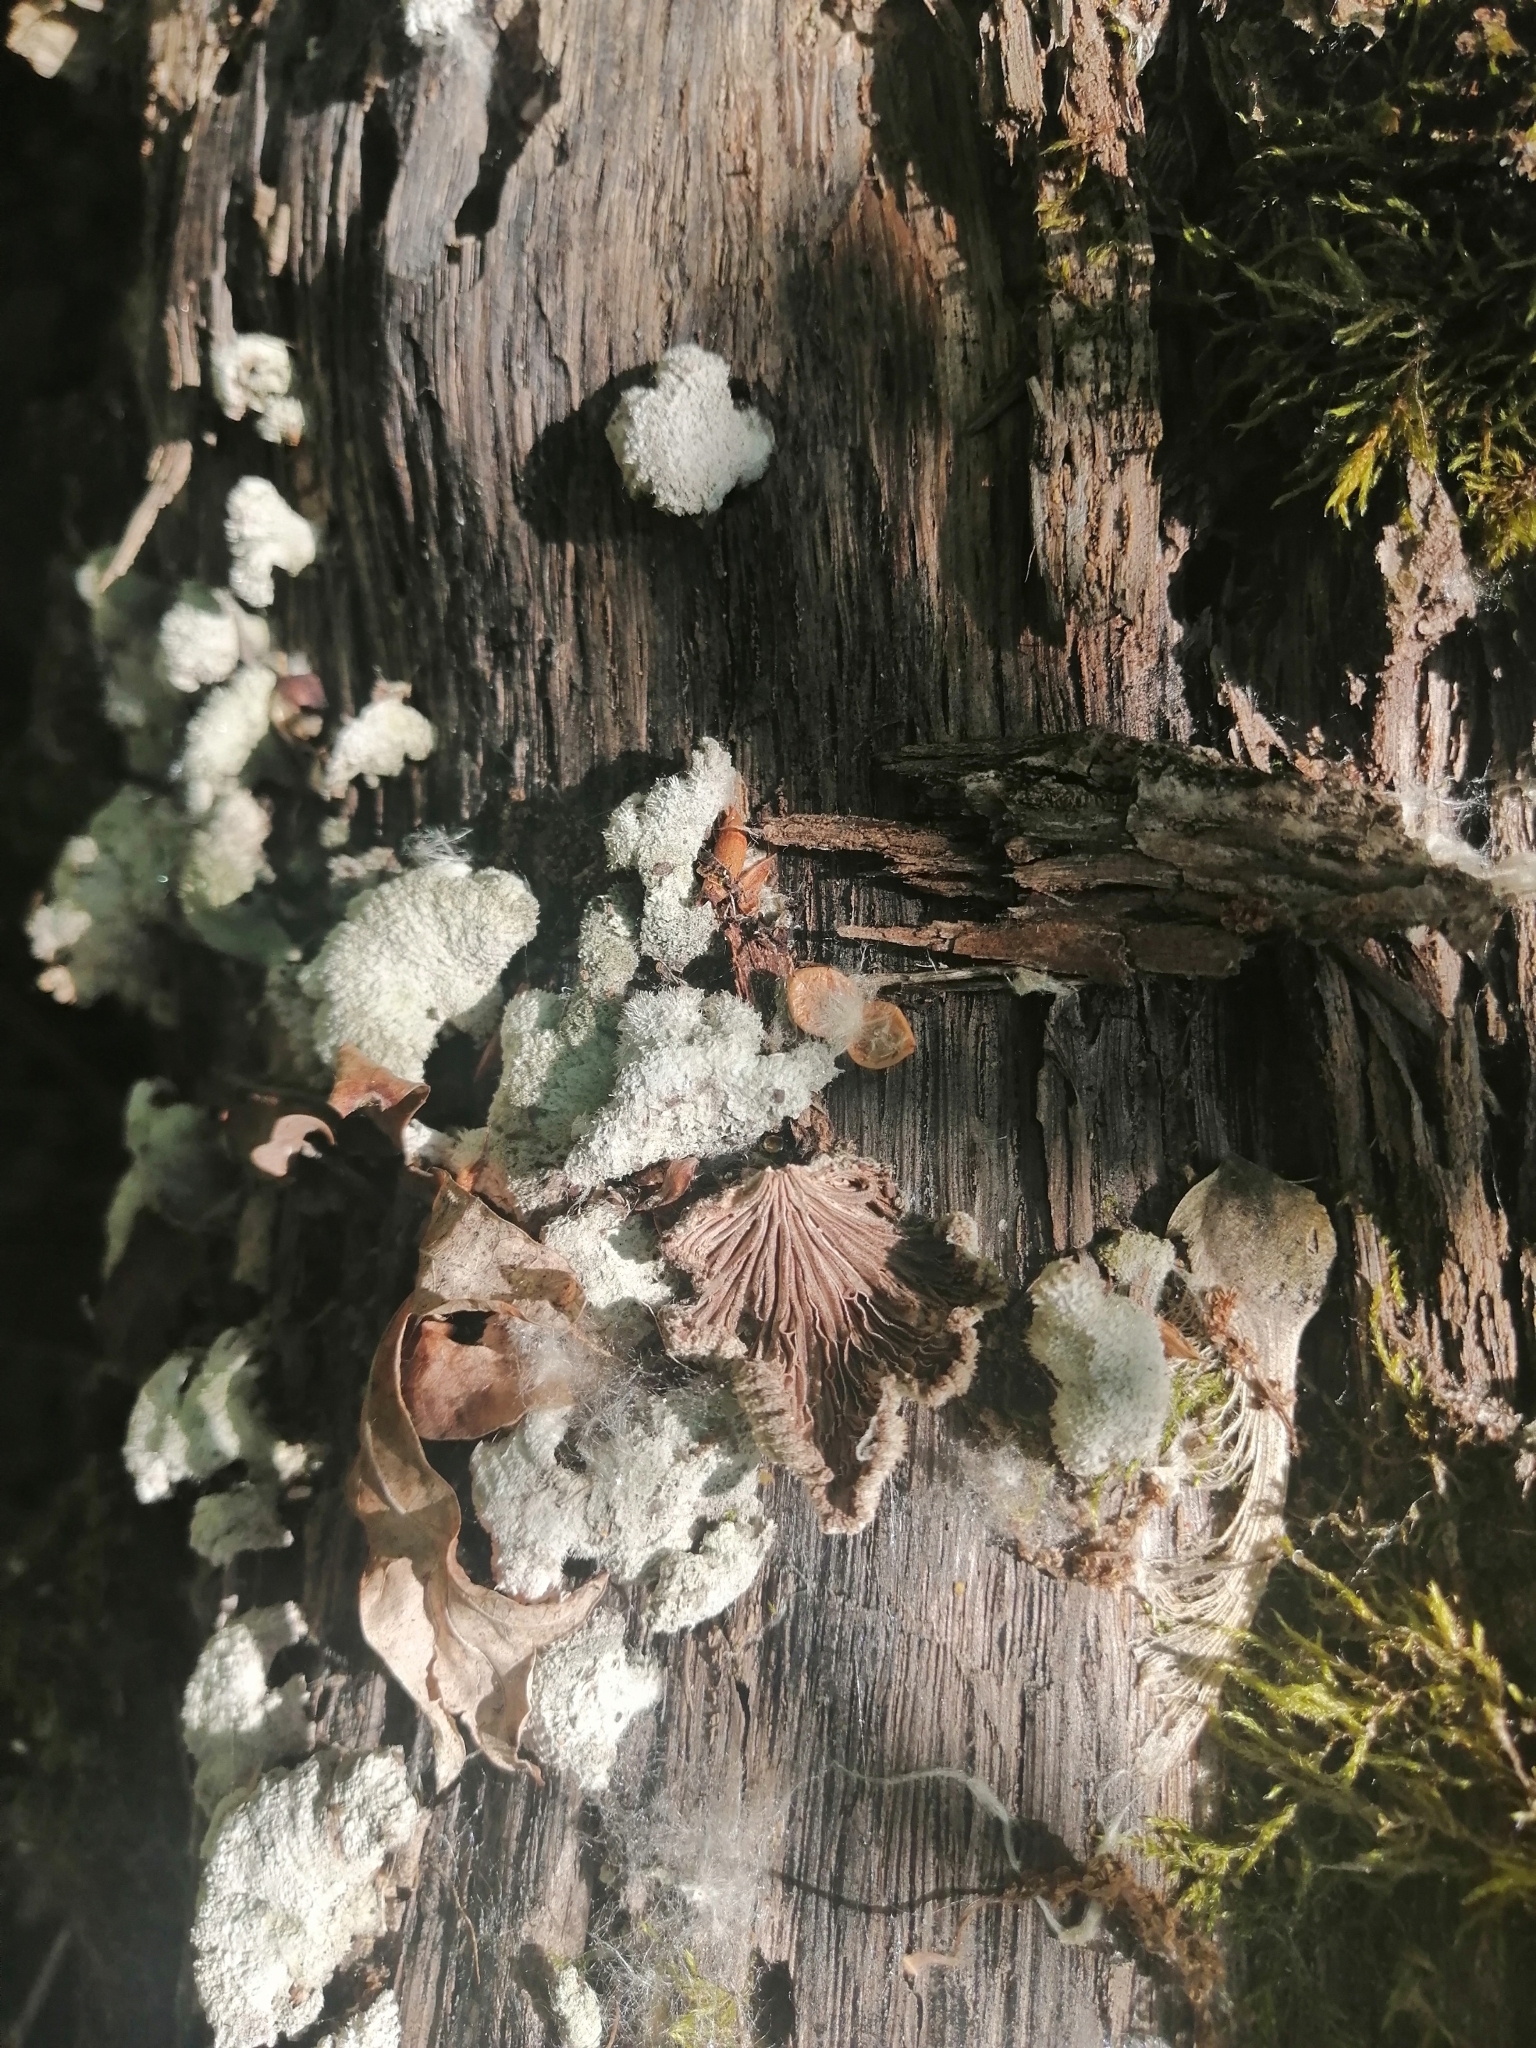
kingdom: Fungi
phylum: Basidiomycota
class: Agaricomycetes
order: Agaricales
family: Schizophyllaceae
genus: Schizophyllum
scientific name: Schizophyllum commune
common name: Common porecrust
